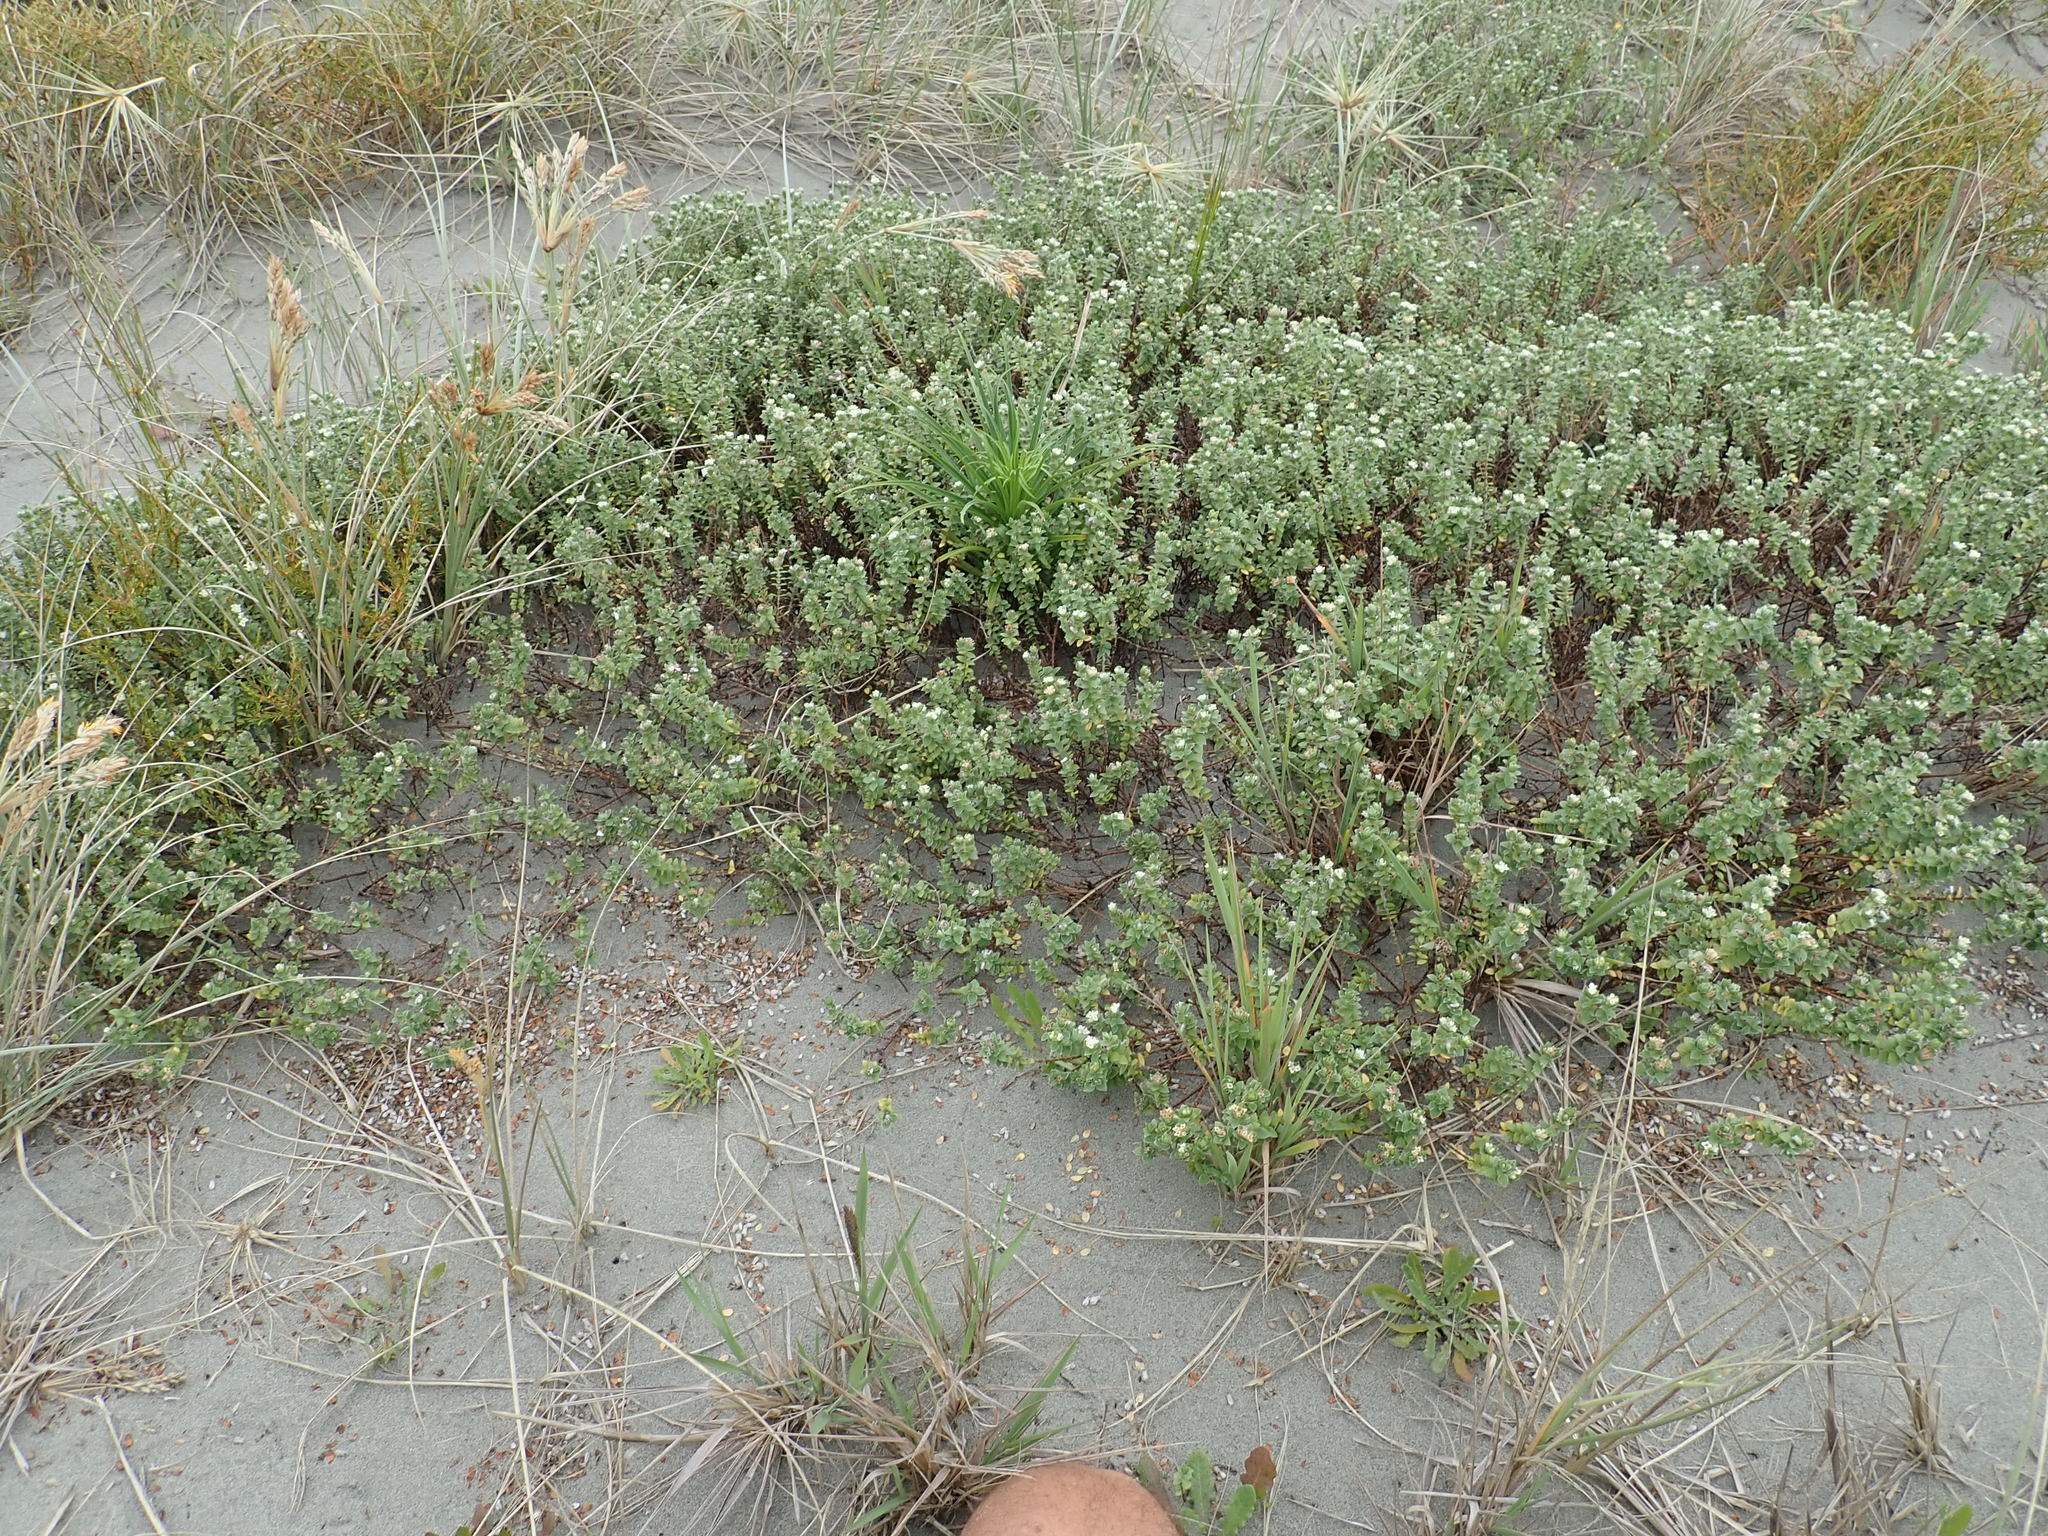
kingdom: Plantae
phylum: Tracheophyta
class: Liliopsida
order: Liliales
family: Liliaceae
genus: Lilium
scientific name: Lilium formosanum
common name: Formosa lily
